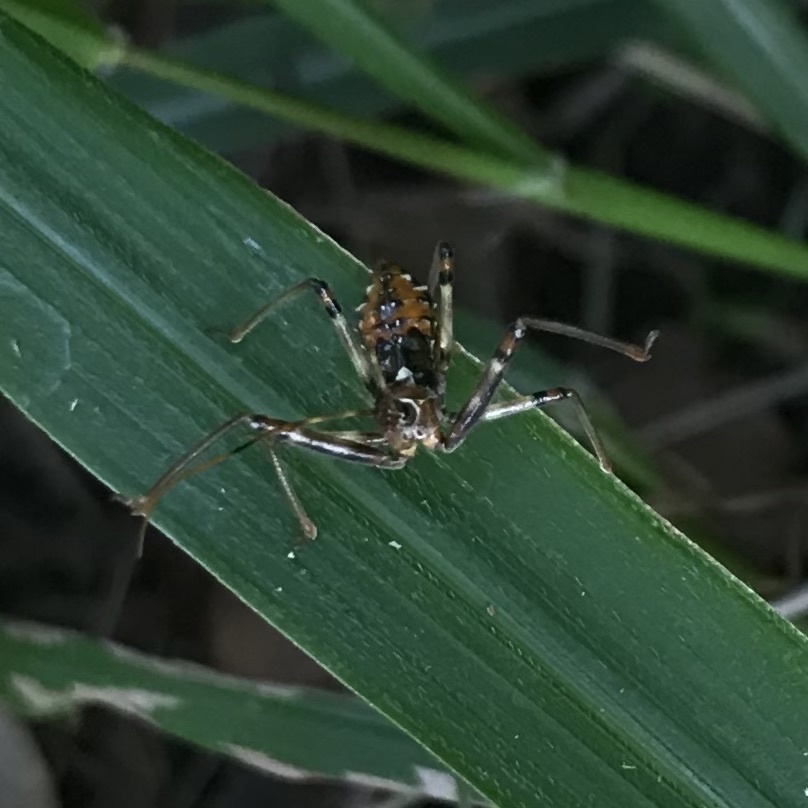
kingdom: Animalia
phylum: Arthropoda
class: Insecta
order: Hemiptera
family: Reduviidae
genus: Pristhesancus
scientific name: Pristhesancus plagipennis
